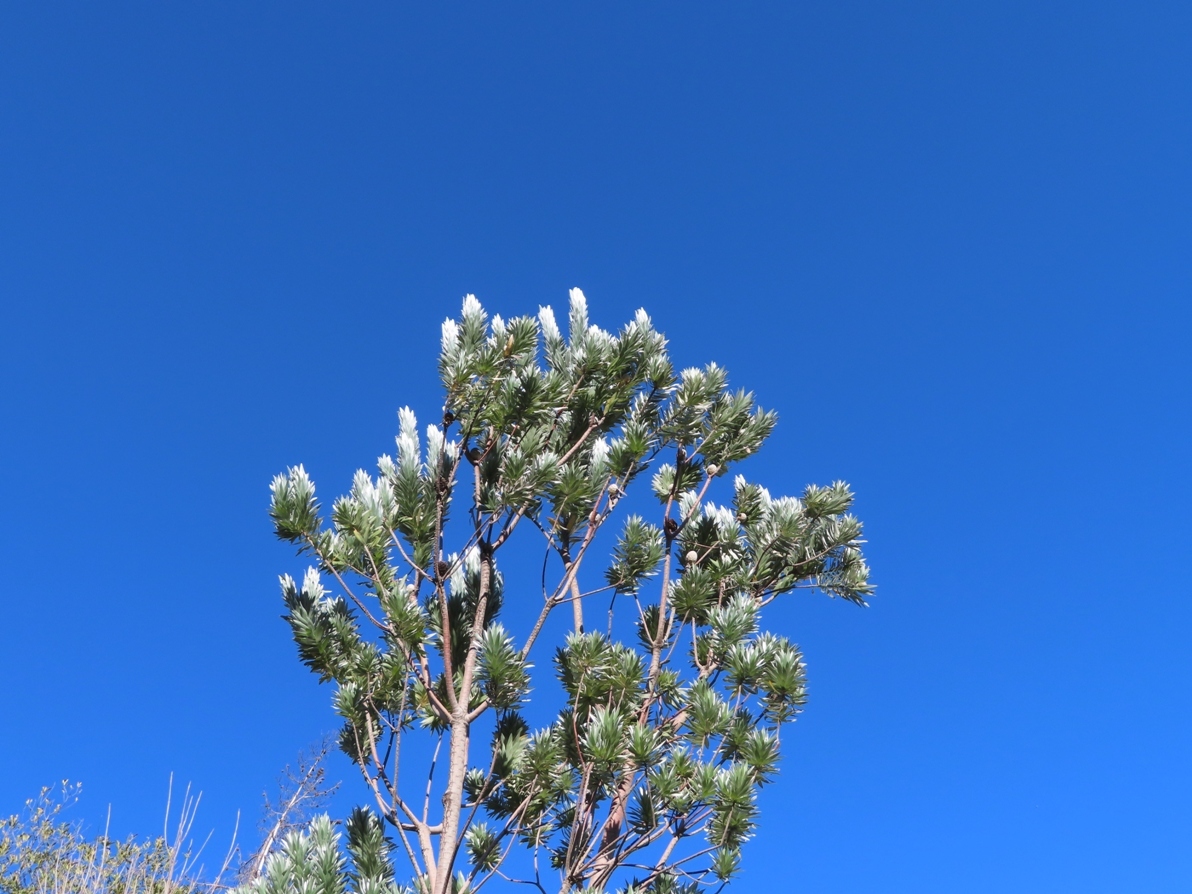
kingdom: Plantae
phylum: Tracheophyta
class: Magnoliopsida
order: Proteales
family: Proteaceae
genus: Leucadendron
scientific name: Leucadendron argenteum
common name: Cape silver tree
